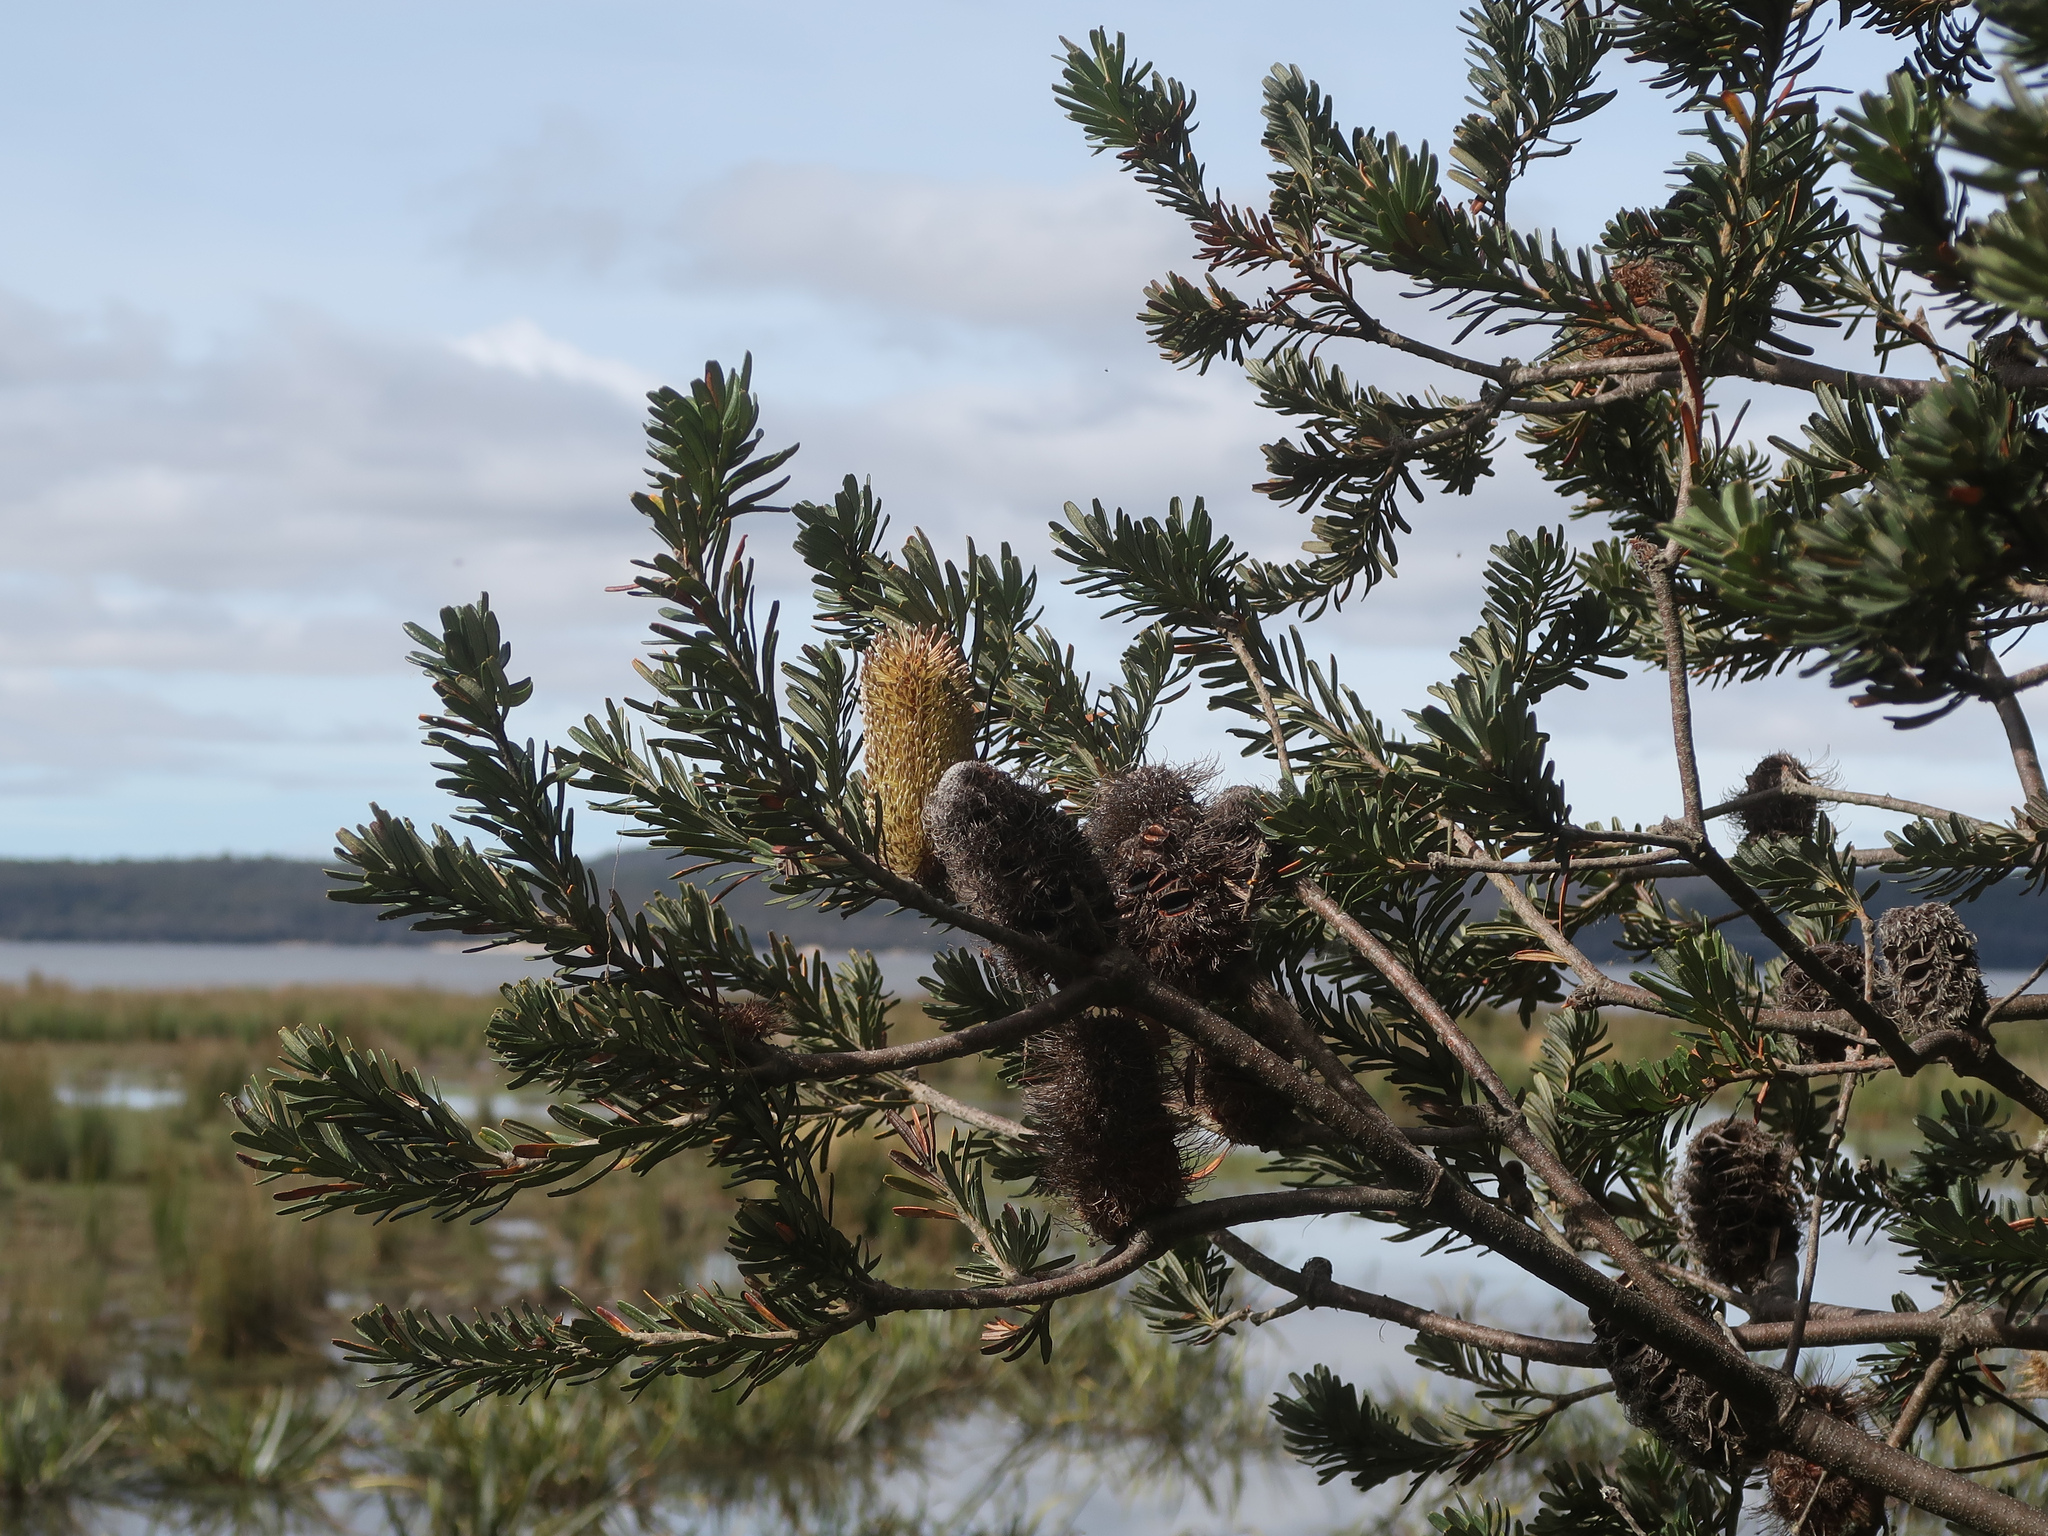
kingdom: Plantae
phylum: Tracheophyta
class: Magnoliopsida
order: Proteales
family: Proteaceae
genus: Banksia
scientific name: Banksia marginata
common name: Silver banksia
